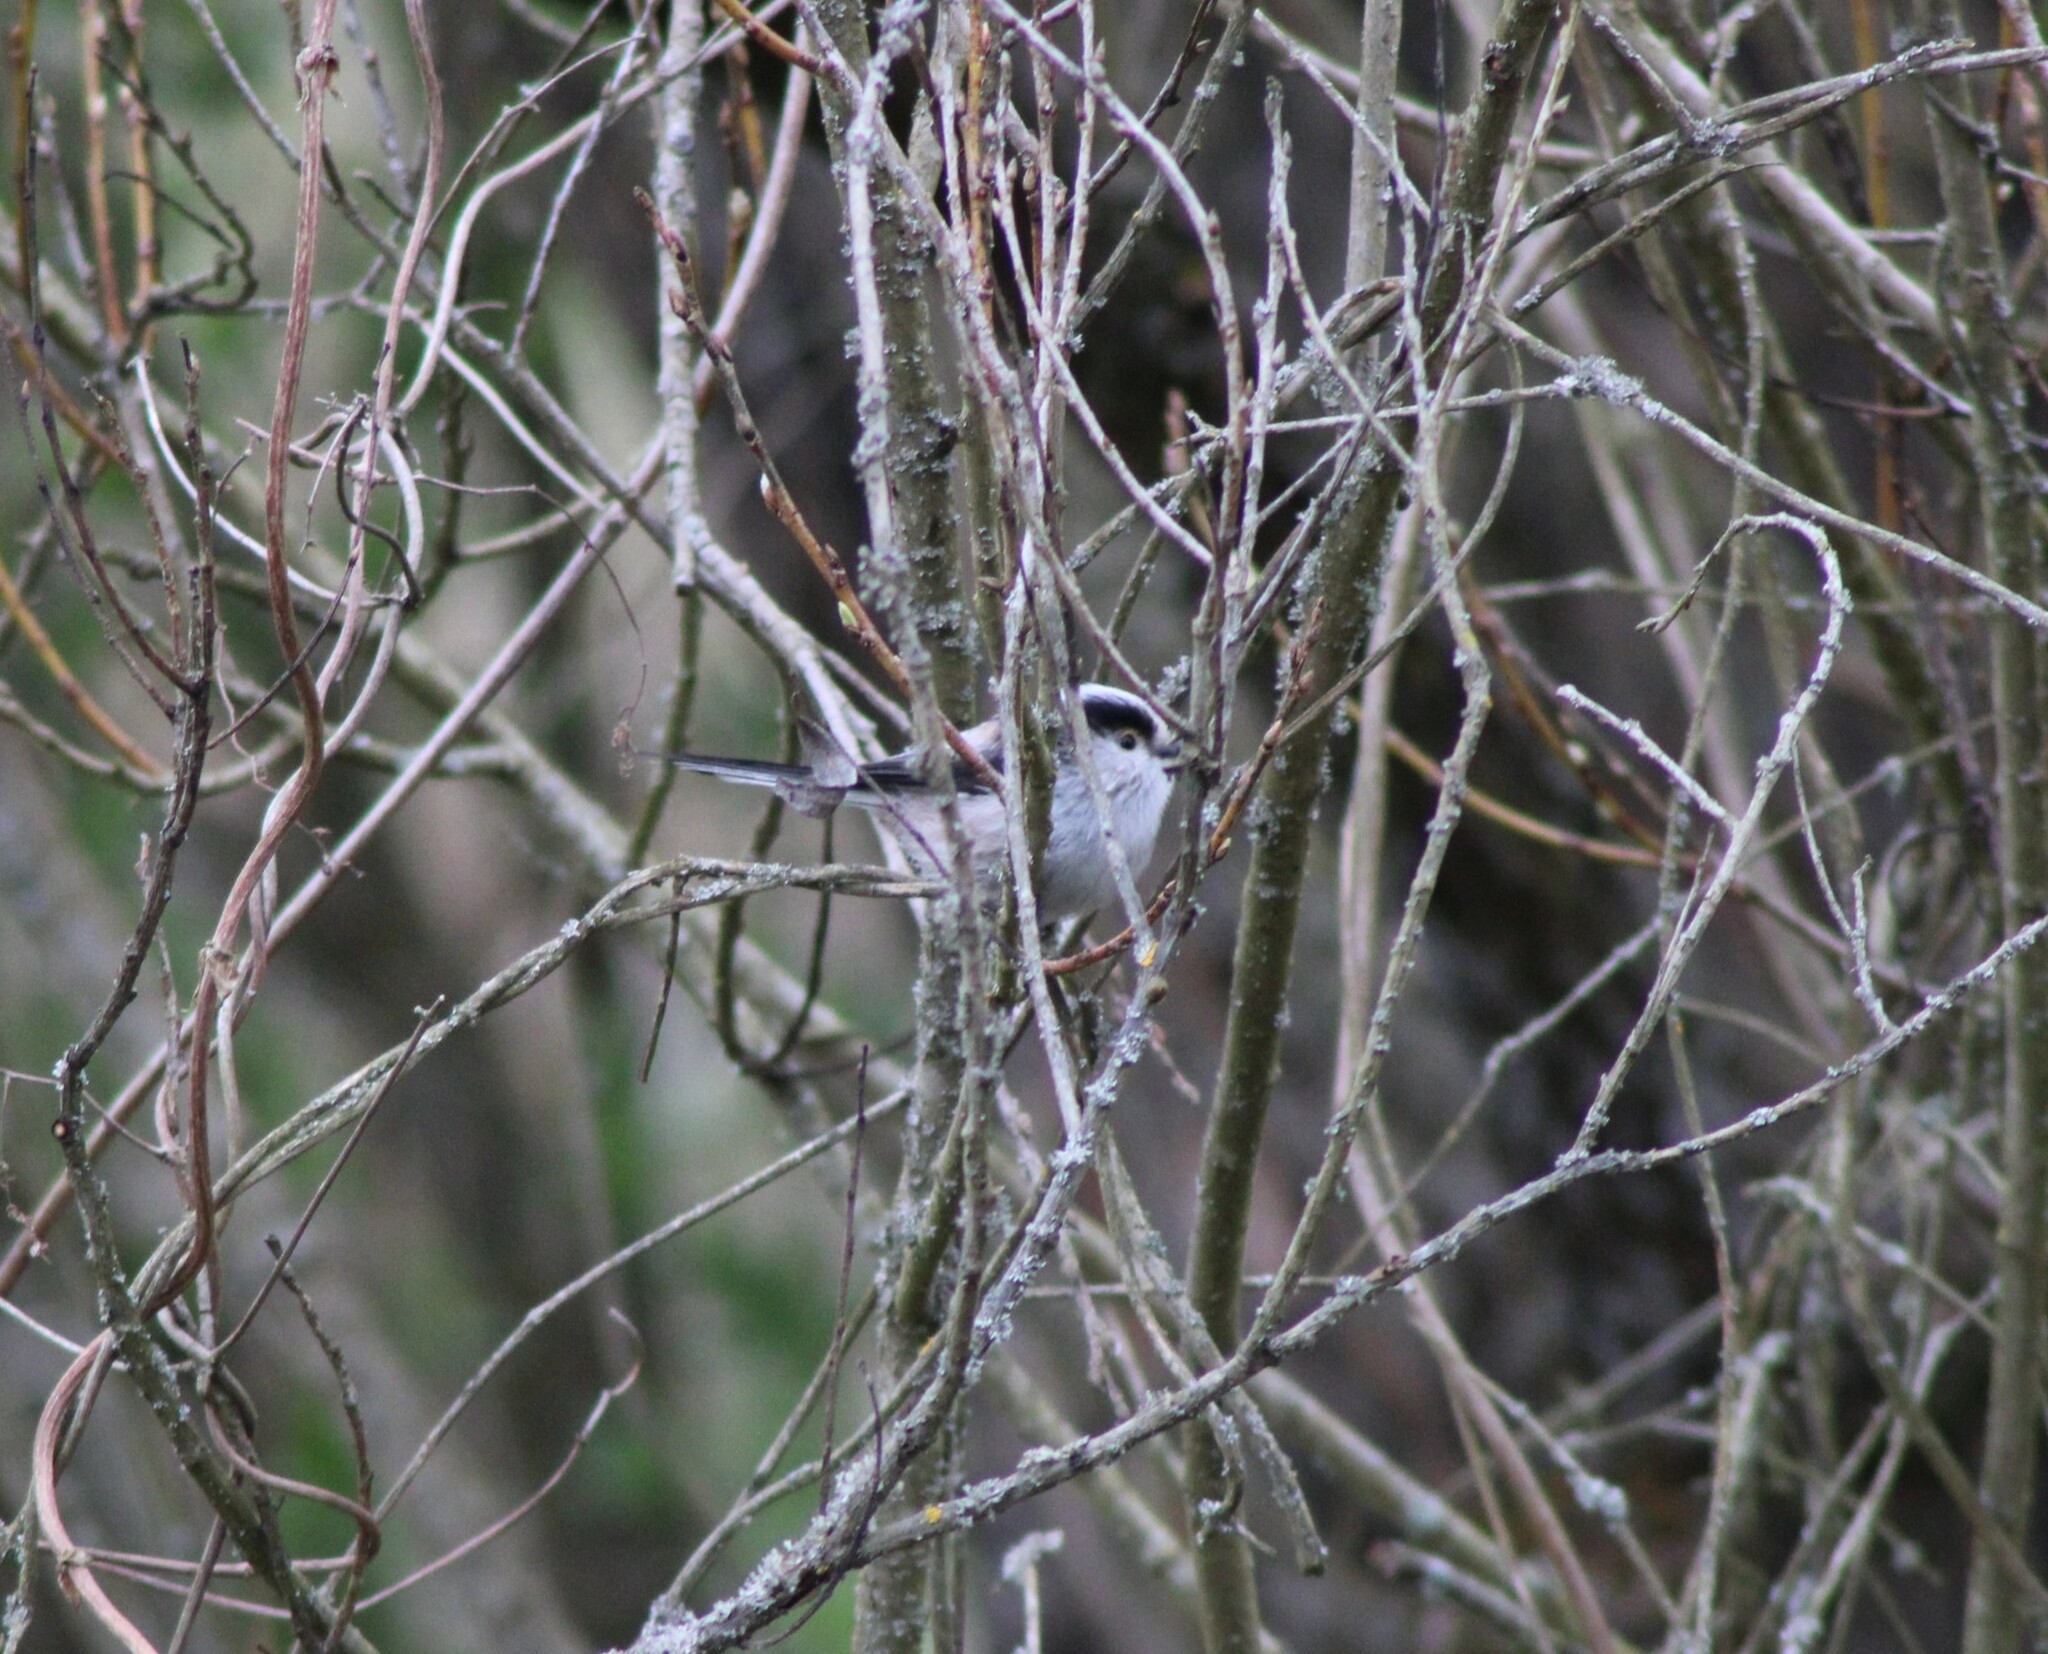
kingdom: Animalia
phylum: Chordata
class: Aves
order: Passeriformes
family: Aegithalidae
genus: Aegithalos
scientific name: Aegithalos caudatus
